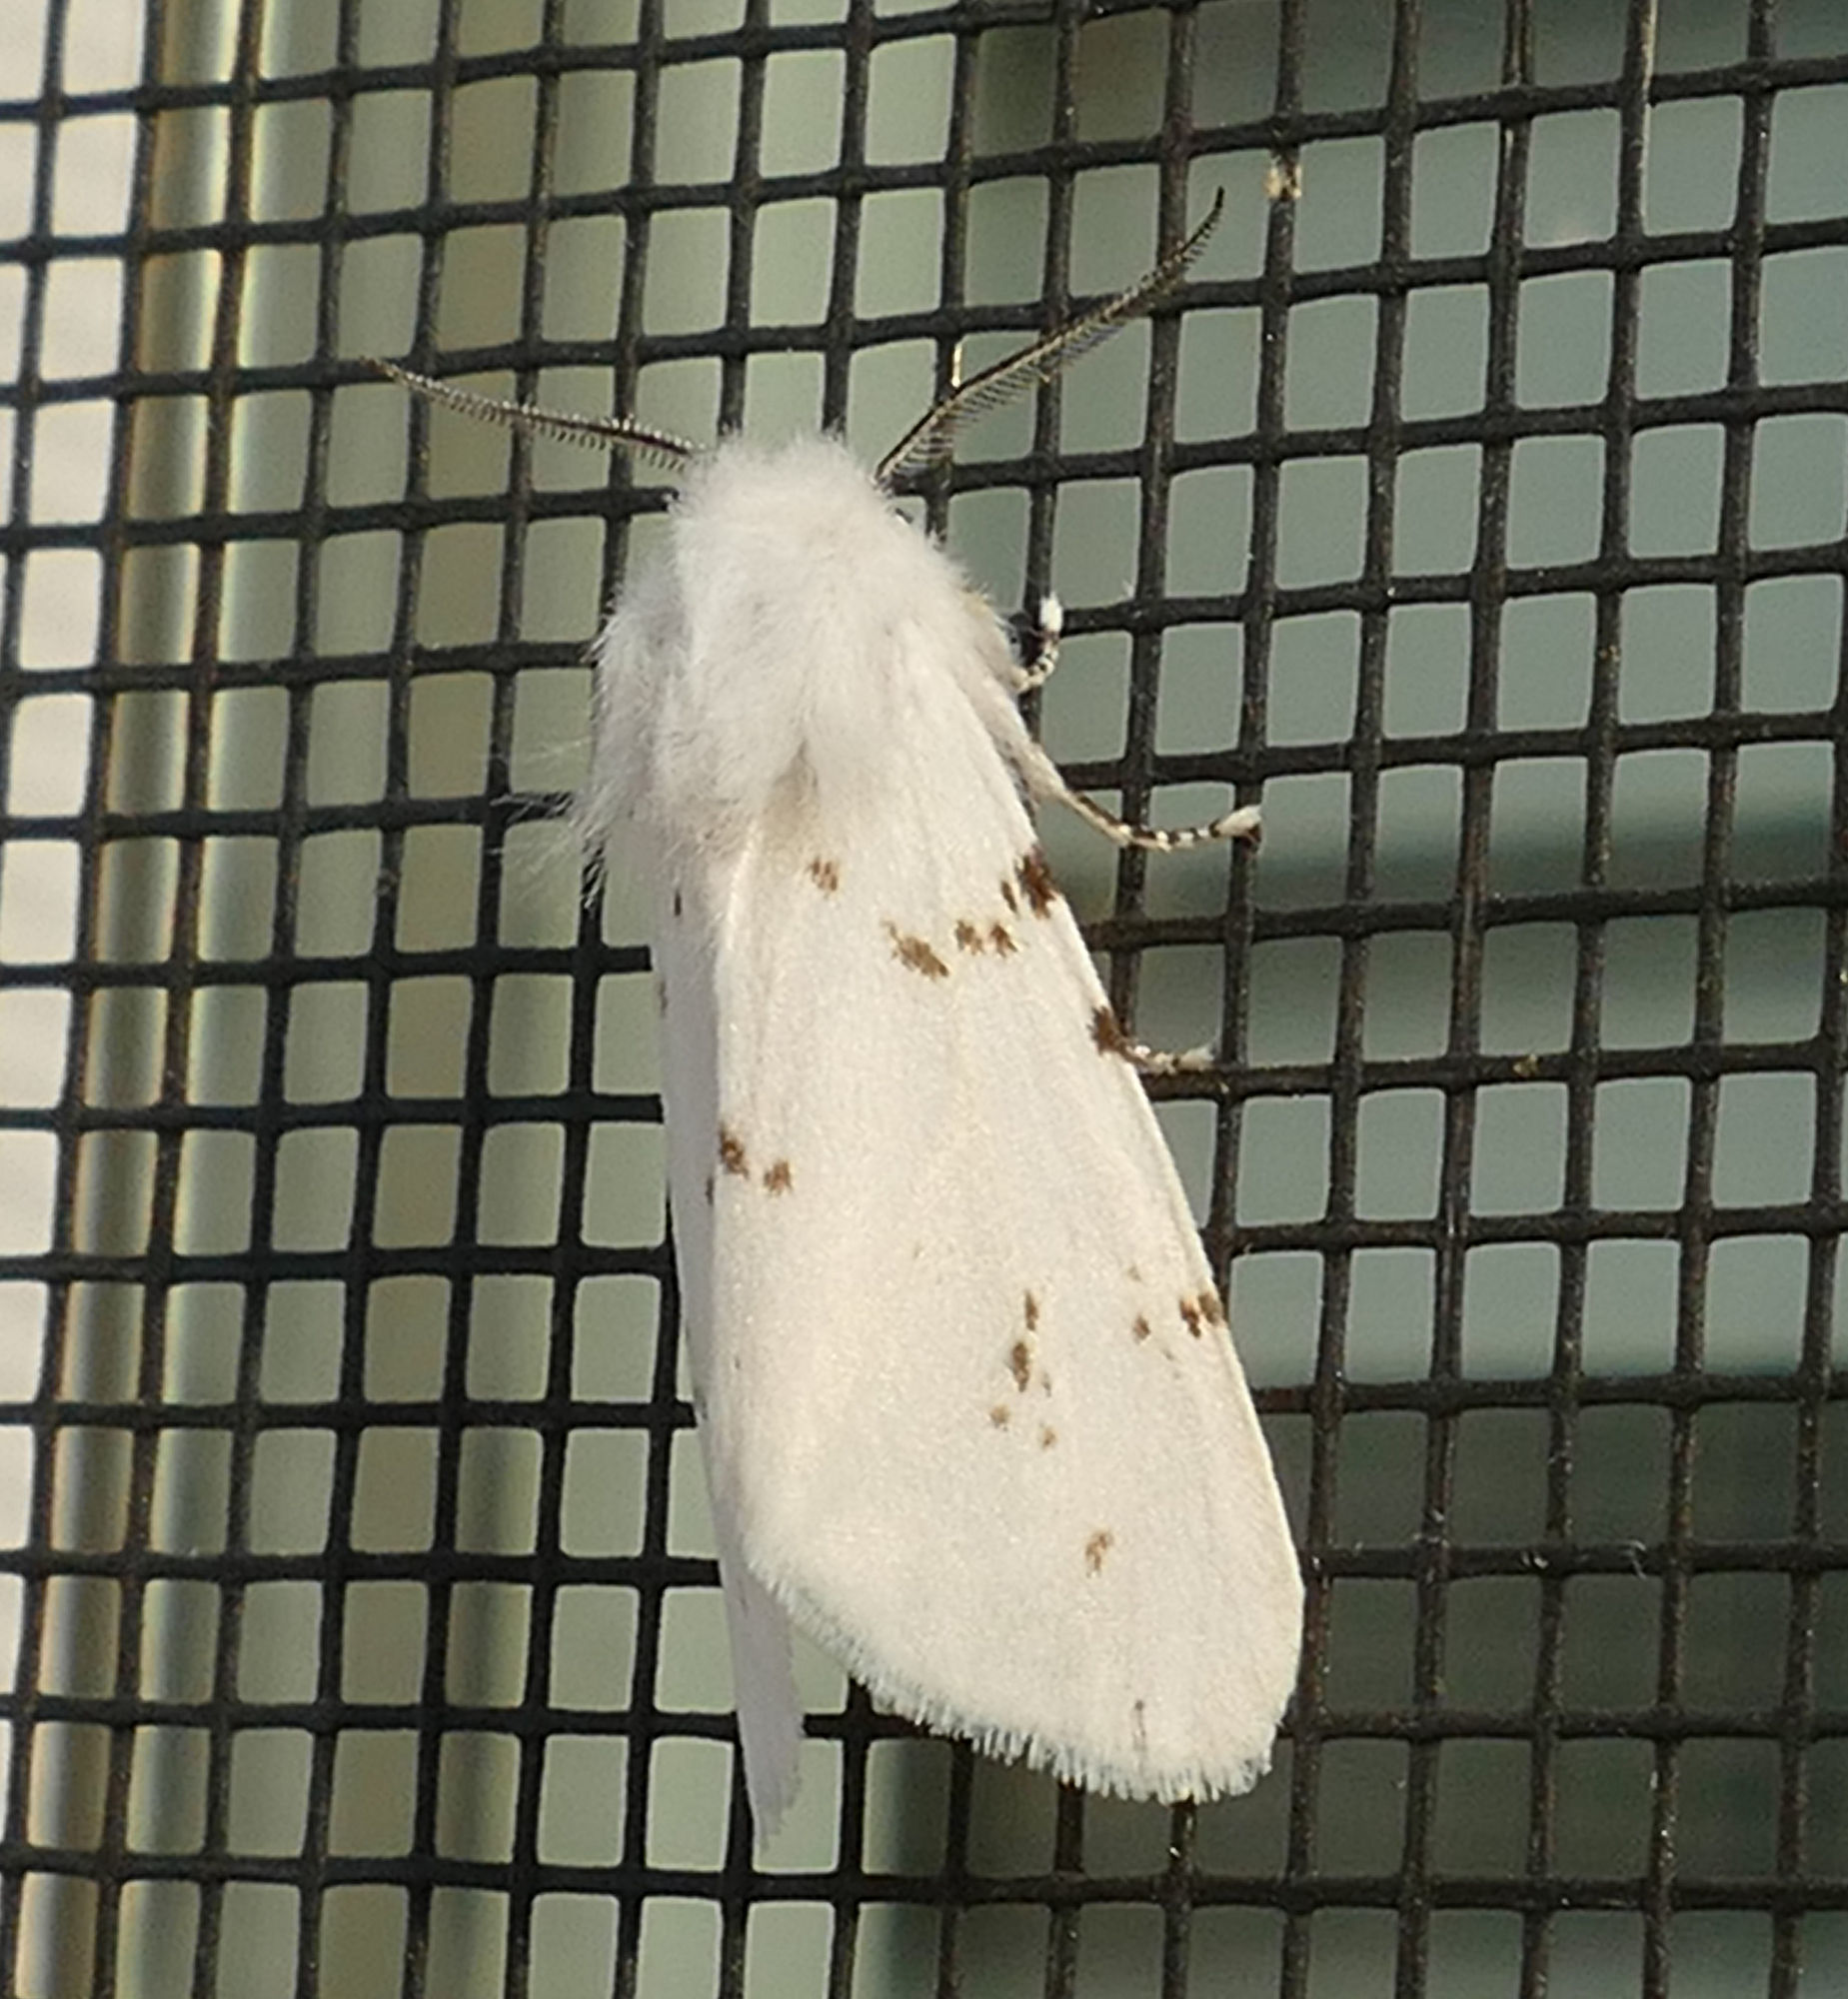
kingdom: Animalia
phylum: Arthropoda
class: Insecta
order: Lepidoptera
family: Erebidae
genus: Hyphantria
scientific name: Hyphantria cunea
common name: American white moth
